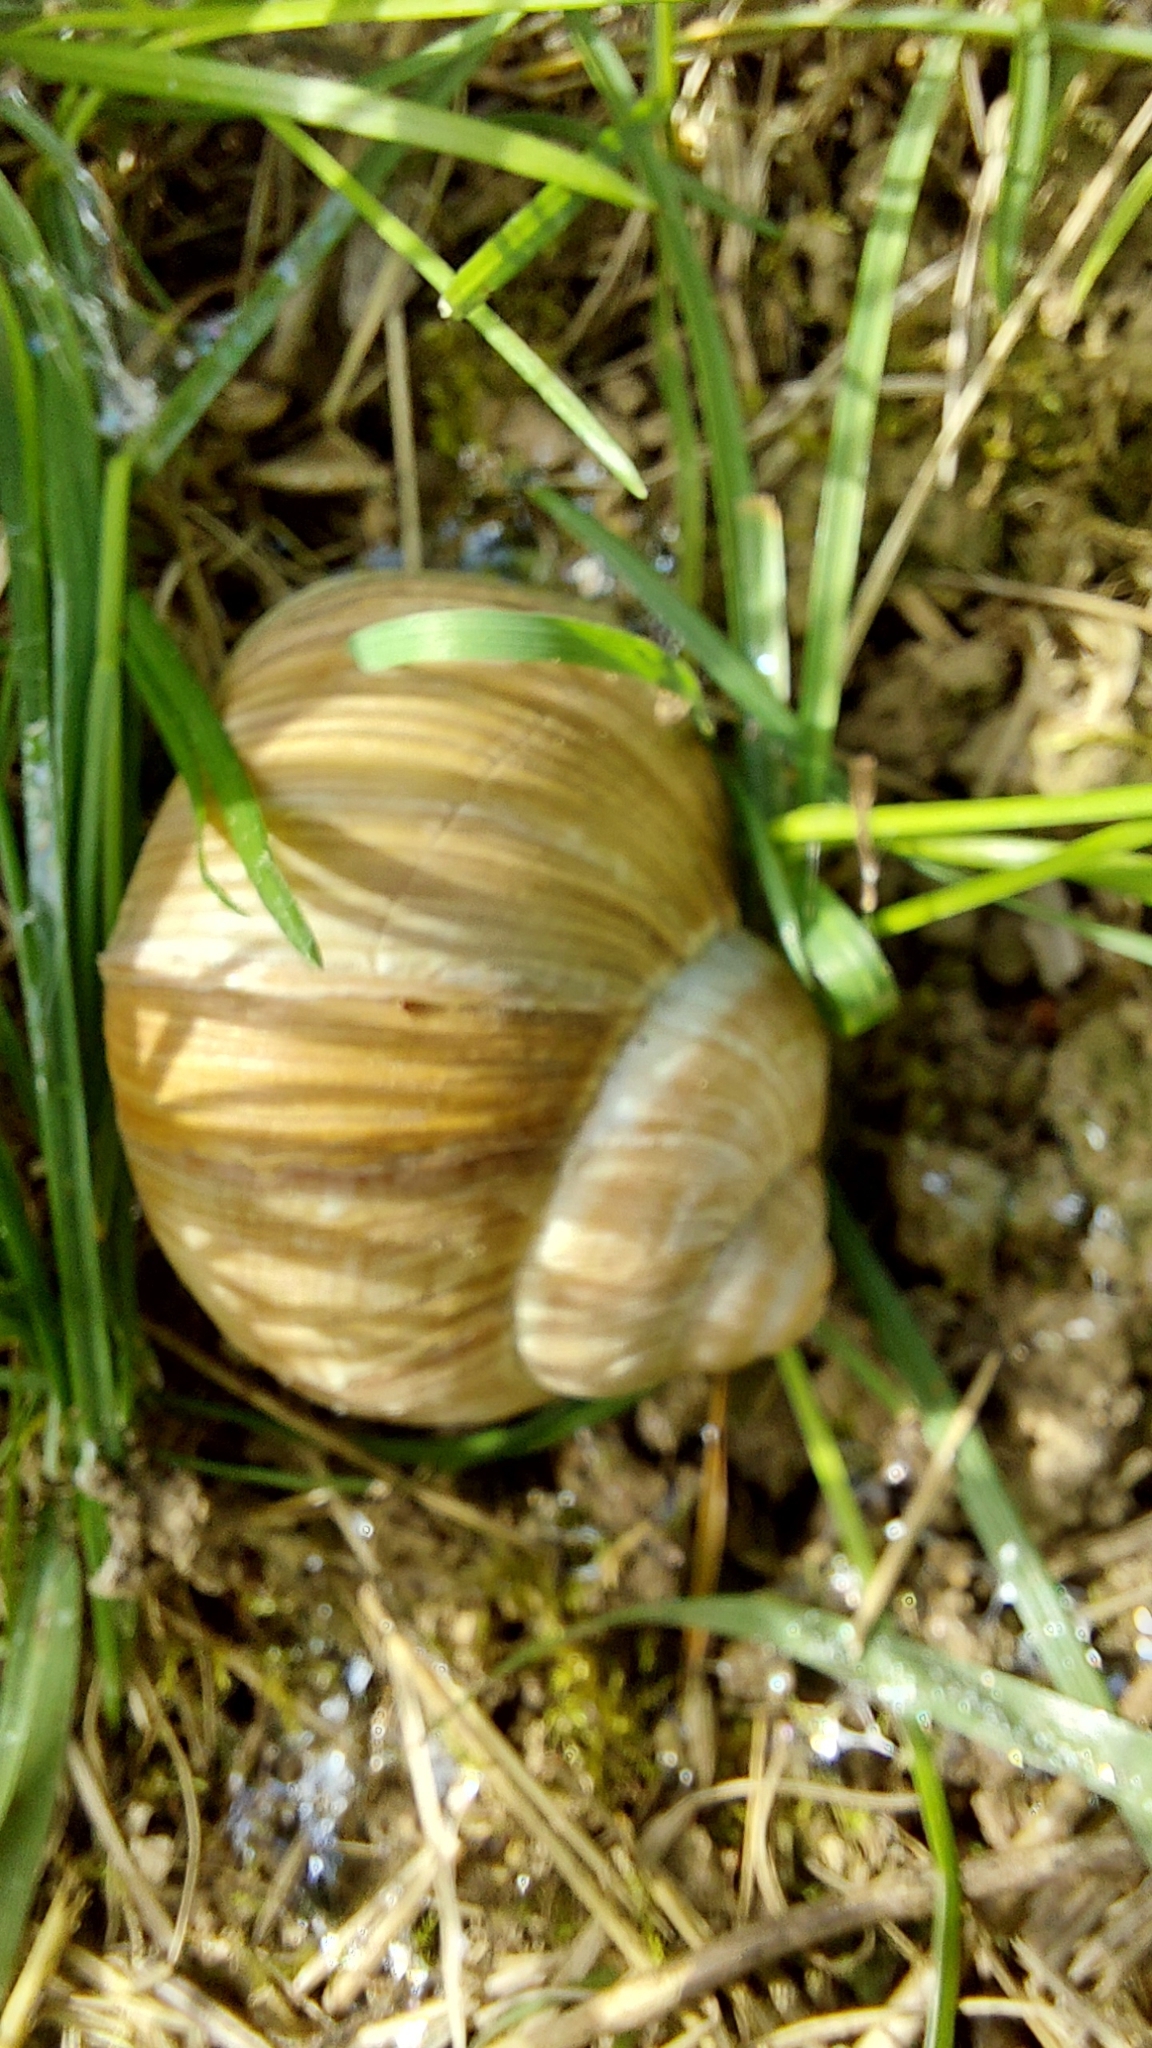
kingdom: Animalia
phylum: Mollusca
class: Gastropoda
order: Stylommatophora
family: Helicidae
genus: Helix
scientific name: Helix pomatia
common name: Roman snail
